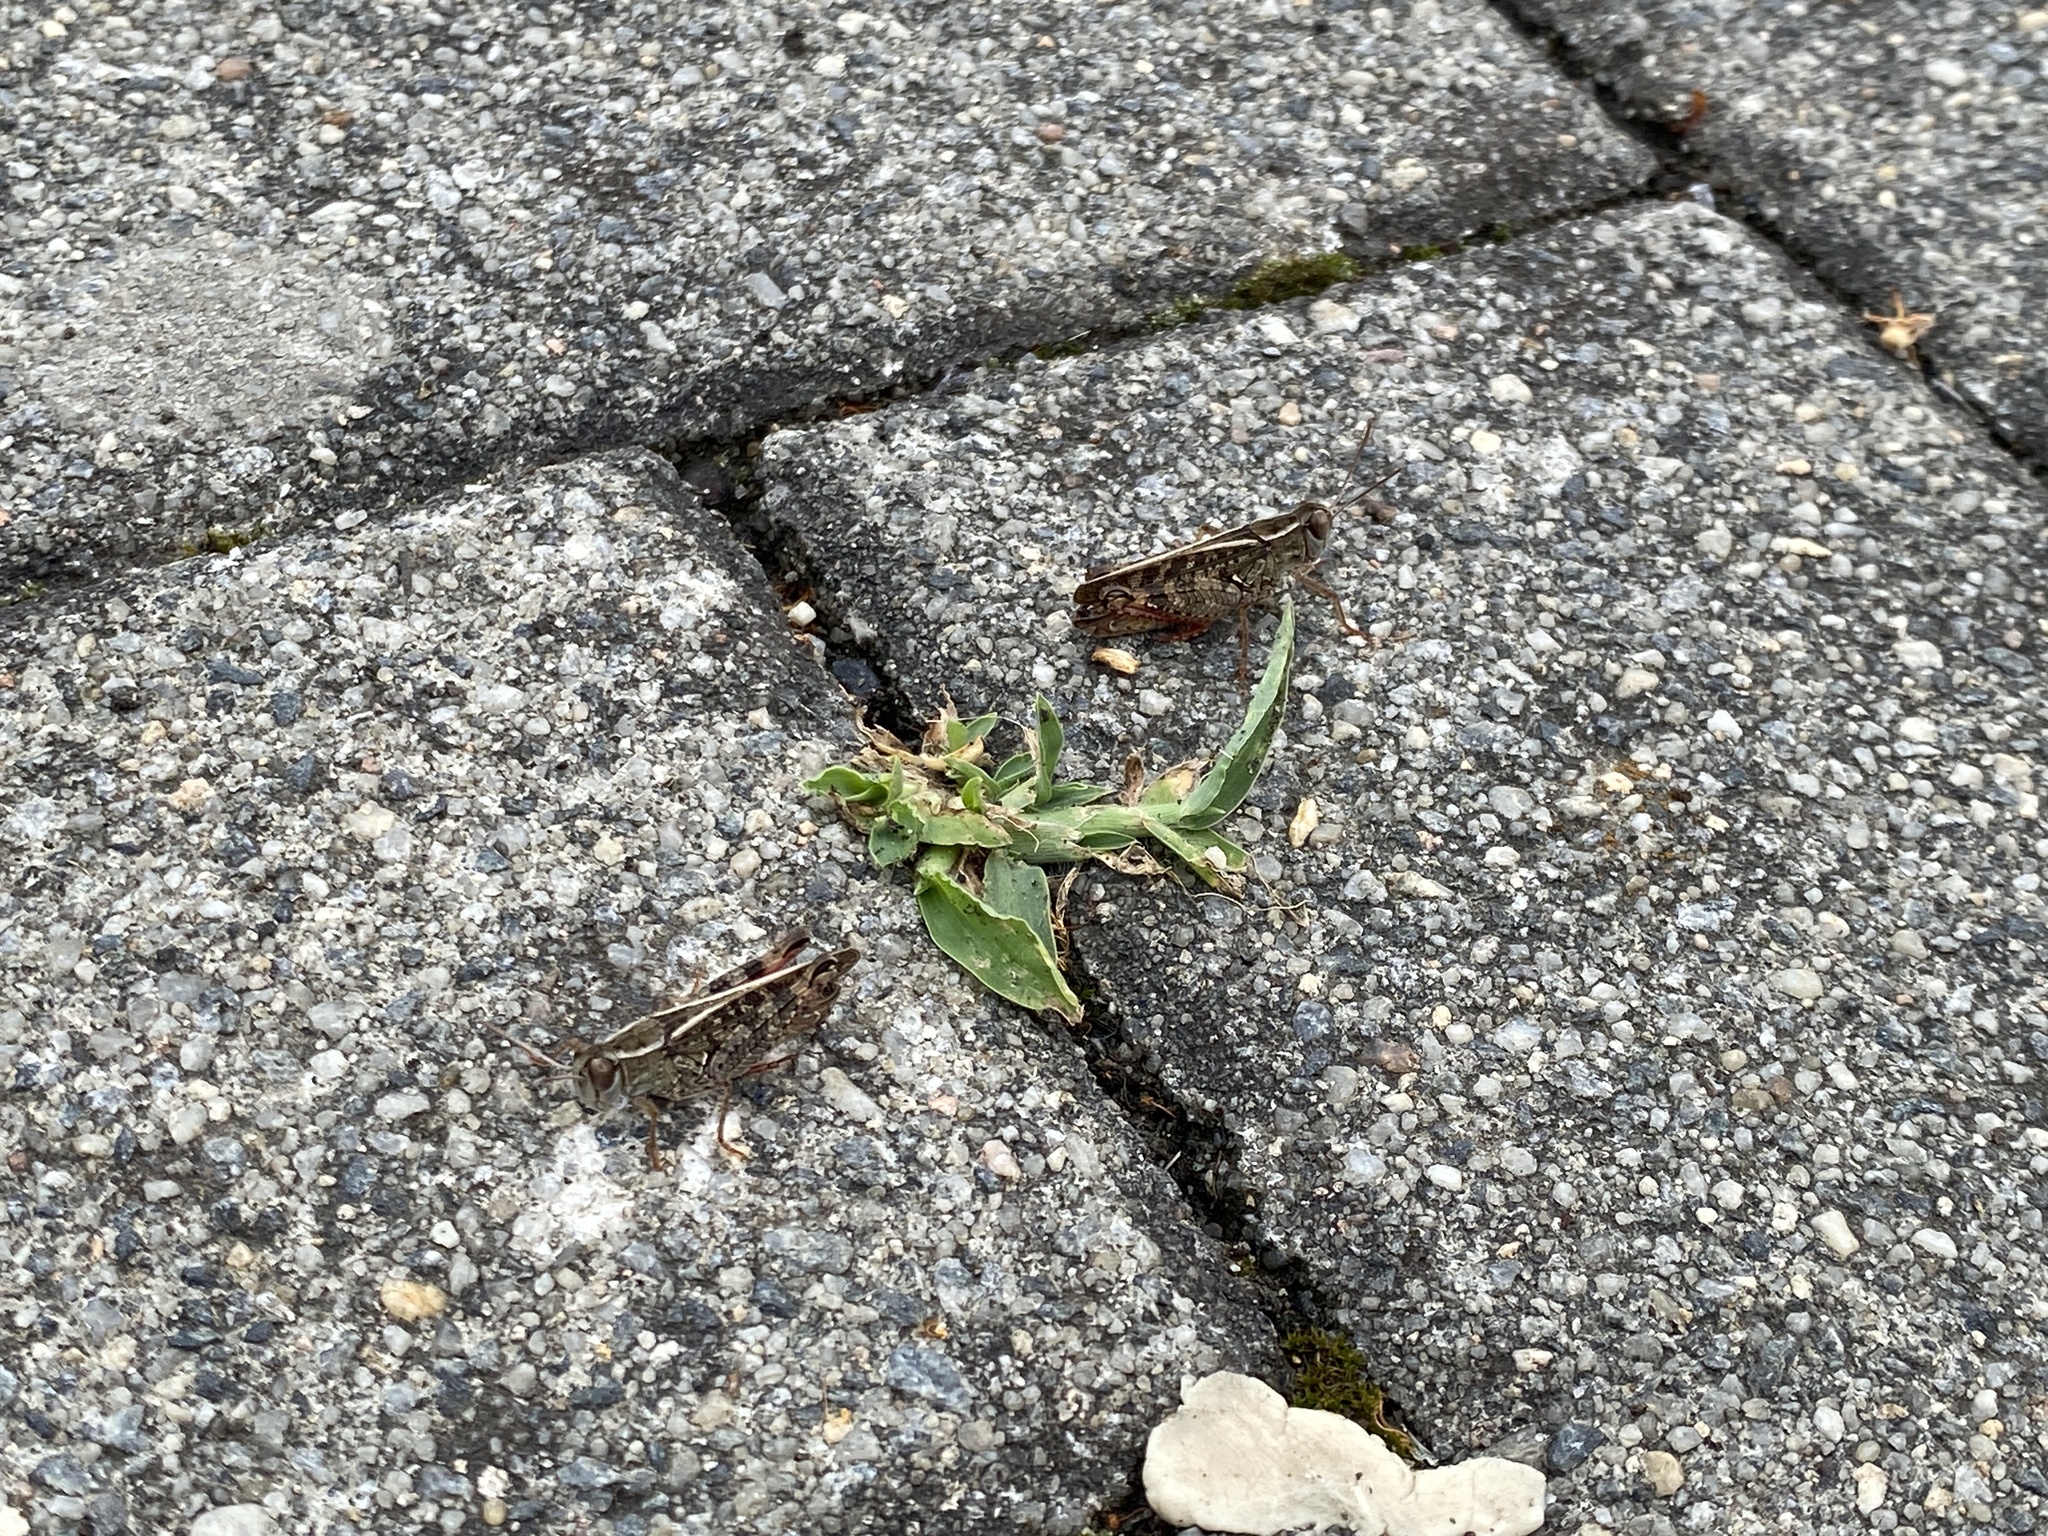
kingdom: Animalia
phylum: Arthropoda
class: Insecta
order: Orthoptera
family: Acrididae
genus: Calliptamus
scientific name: Calliptamus italicus
